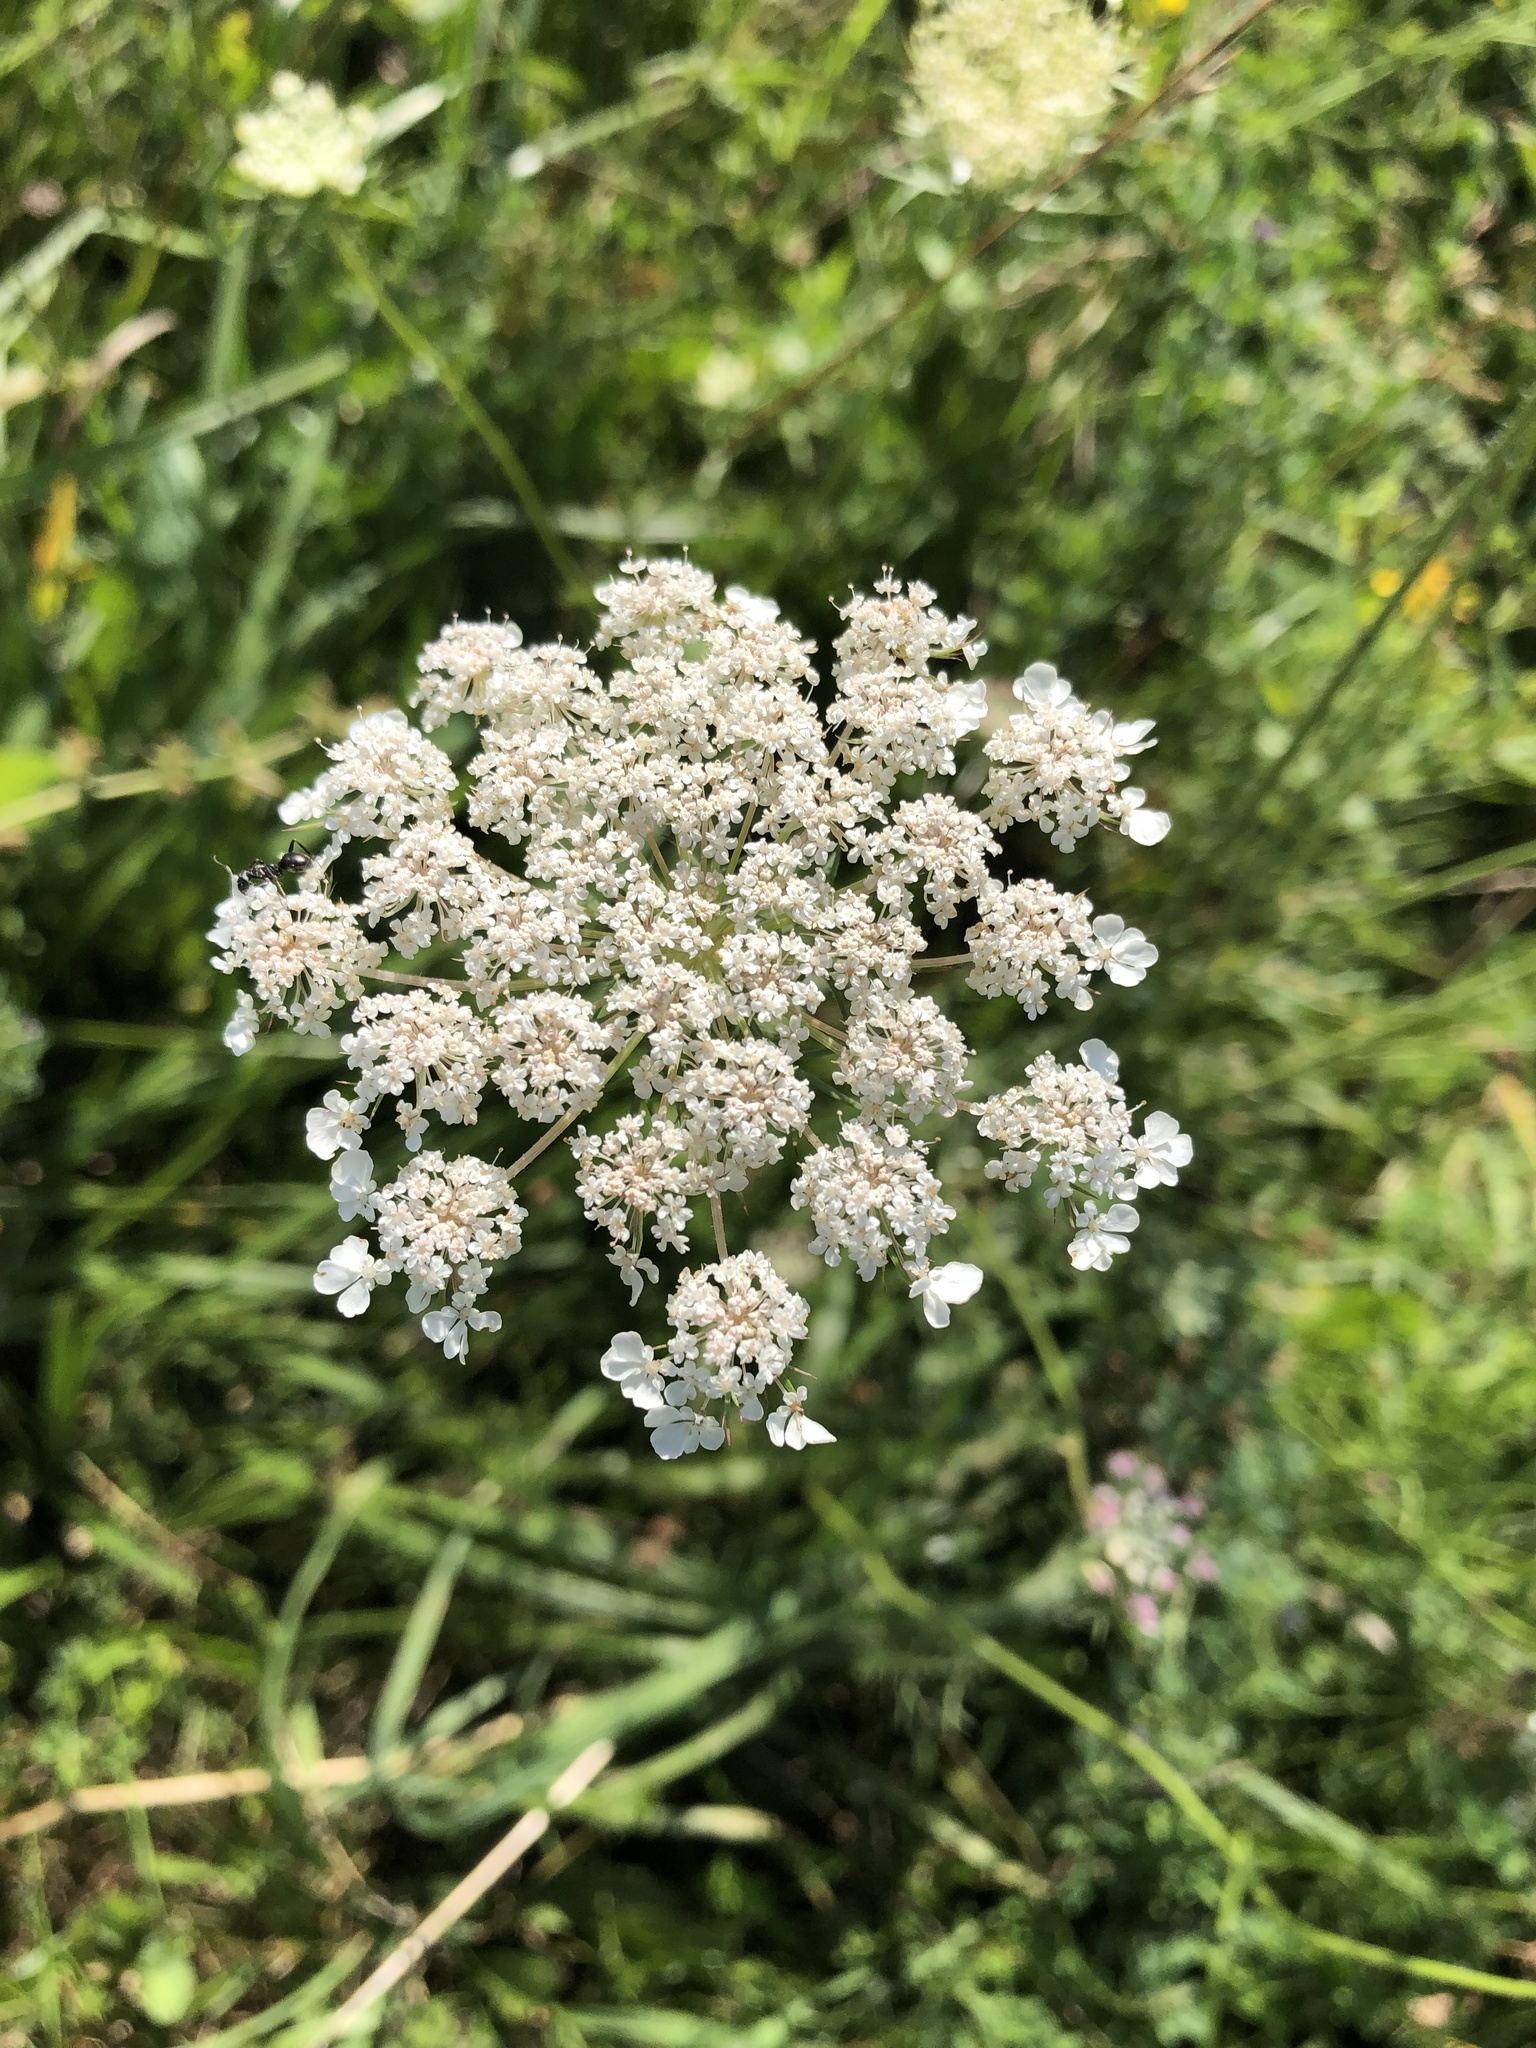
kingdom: Plantae
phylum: Tracheophyta
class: Magnoliopsida
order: Apiales
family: Apiaceae
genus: Daucus
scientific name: Daucus carota
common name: Wild carrot
